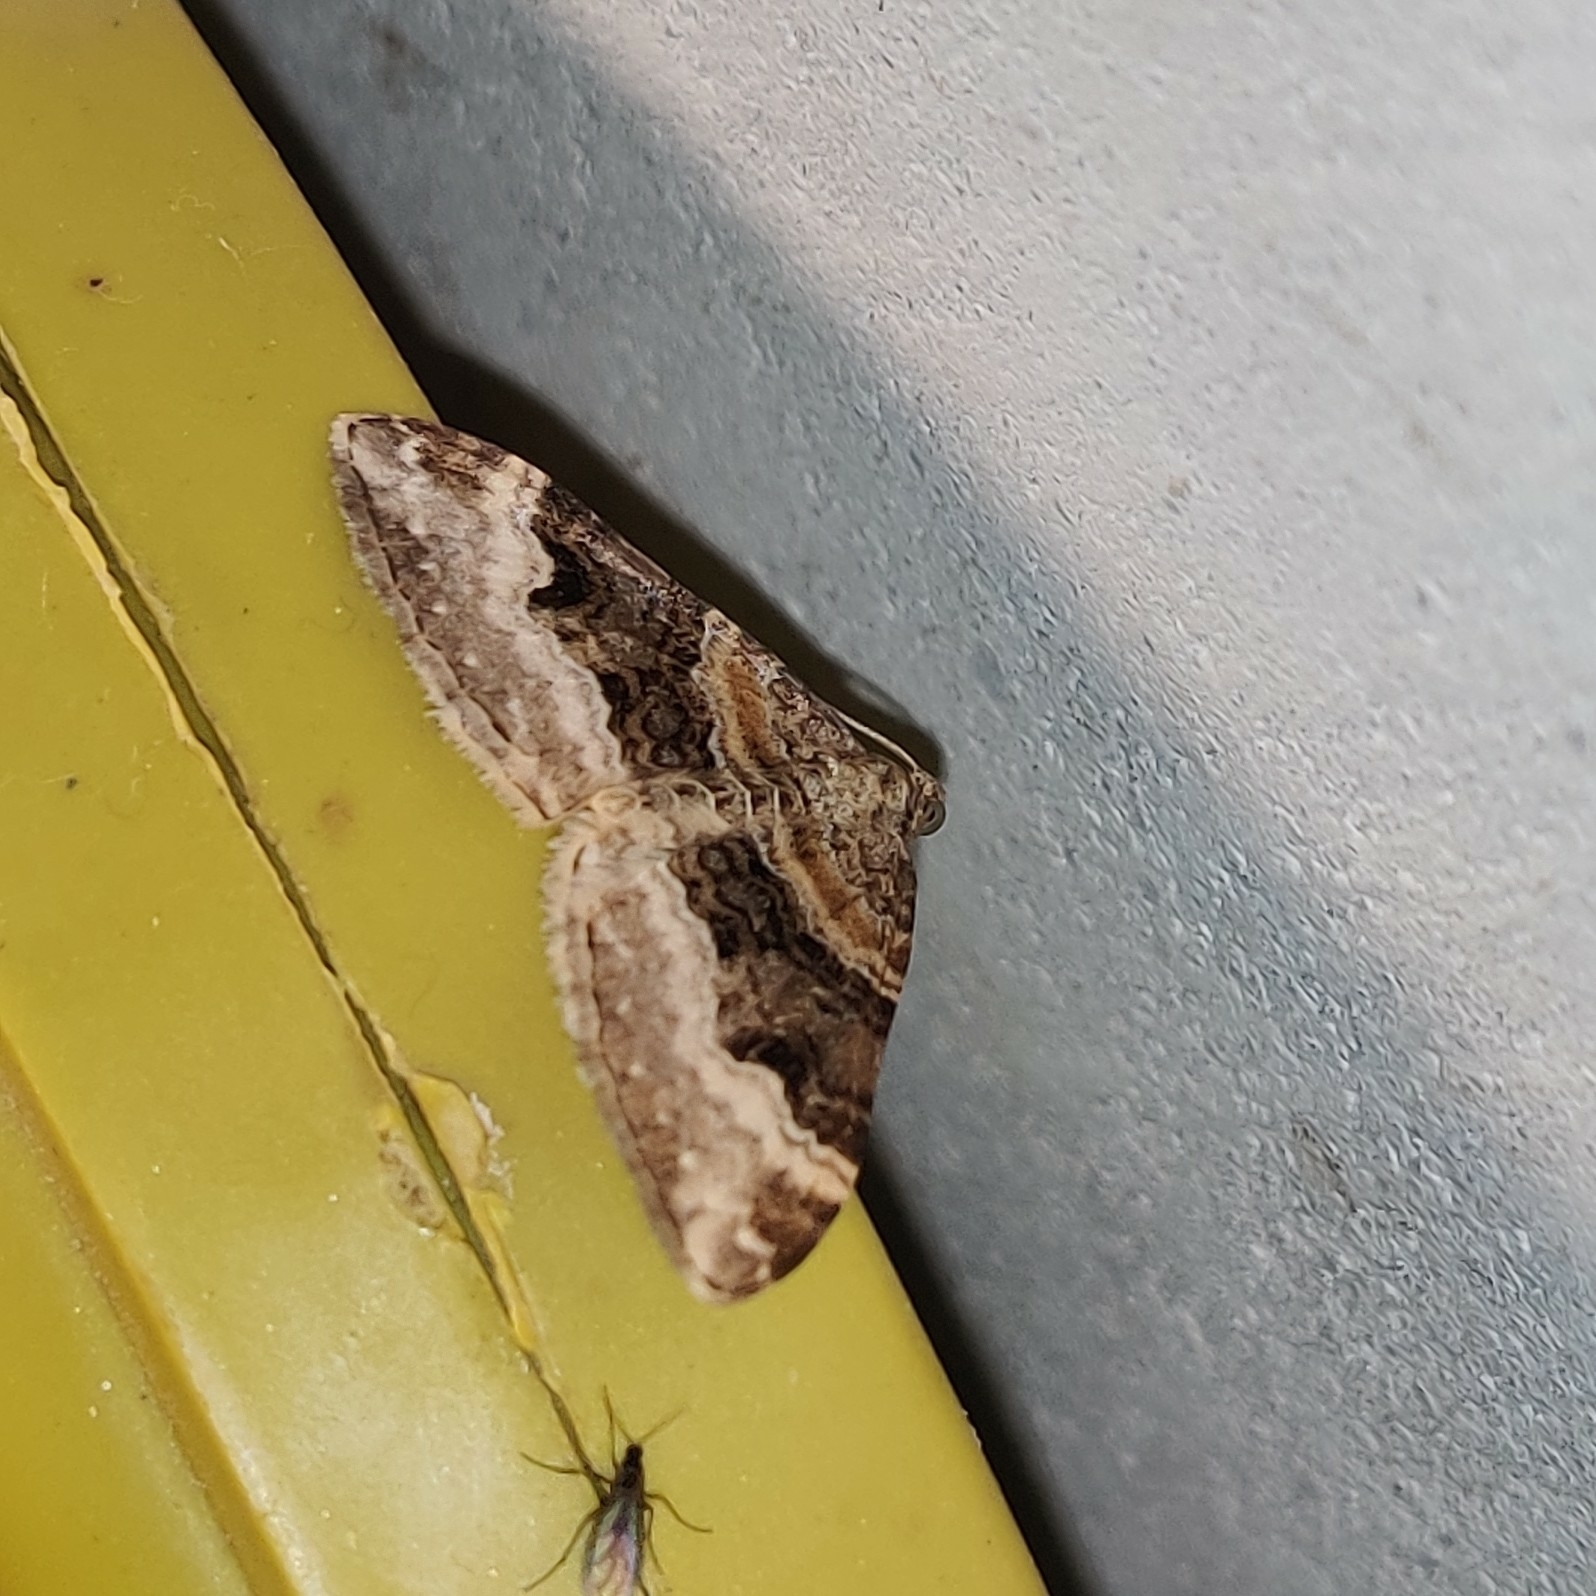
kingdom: Animalia
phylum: Arthropoda
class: Insecta
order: Lepidoptera
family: Geometridae
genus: Euphyia
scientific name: Euphyia subangulata
